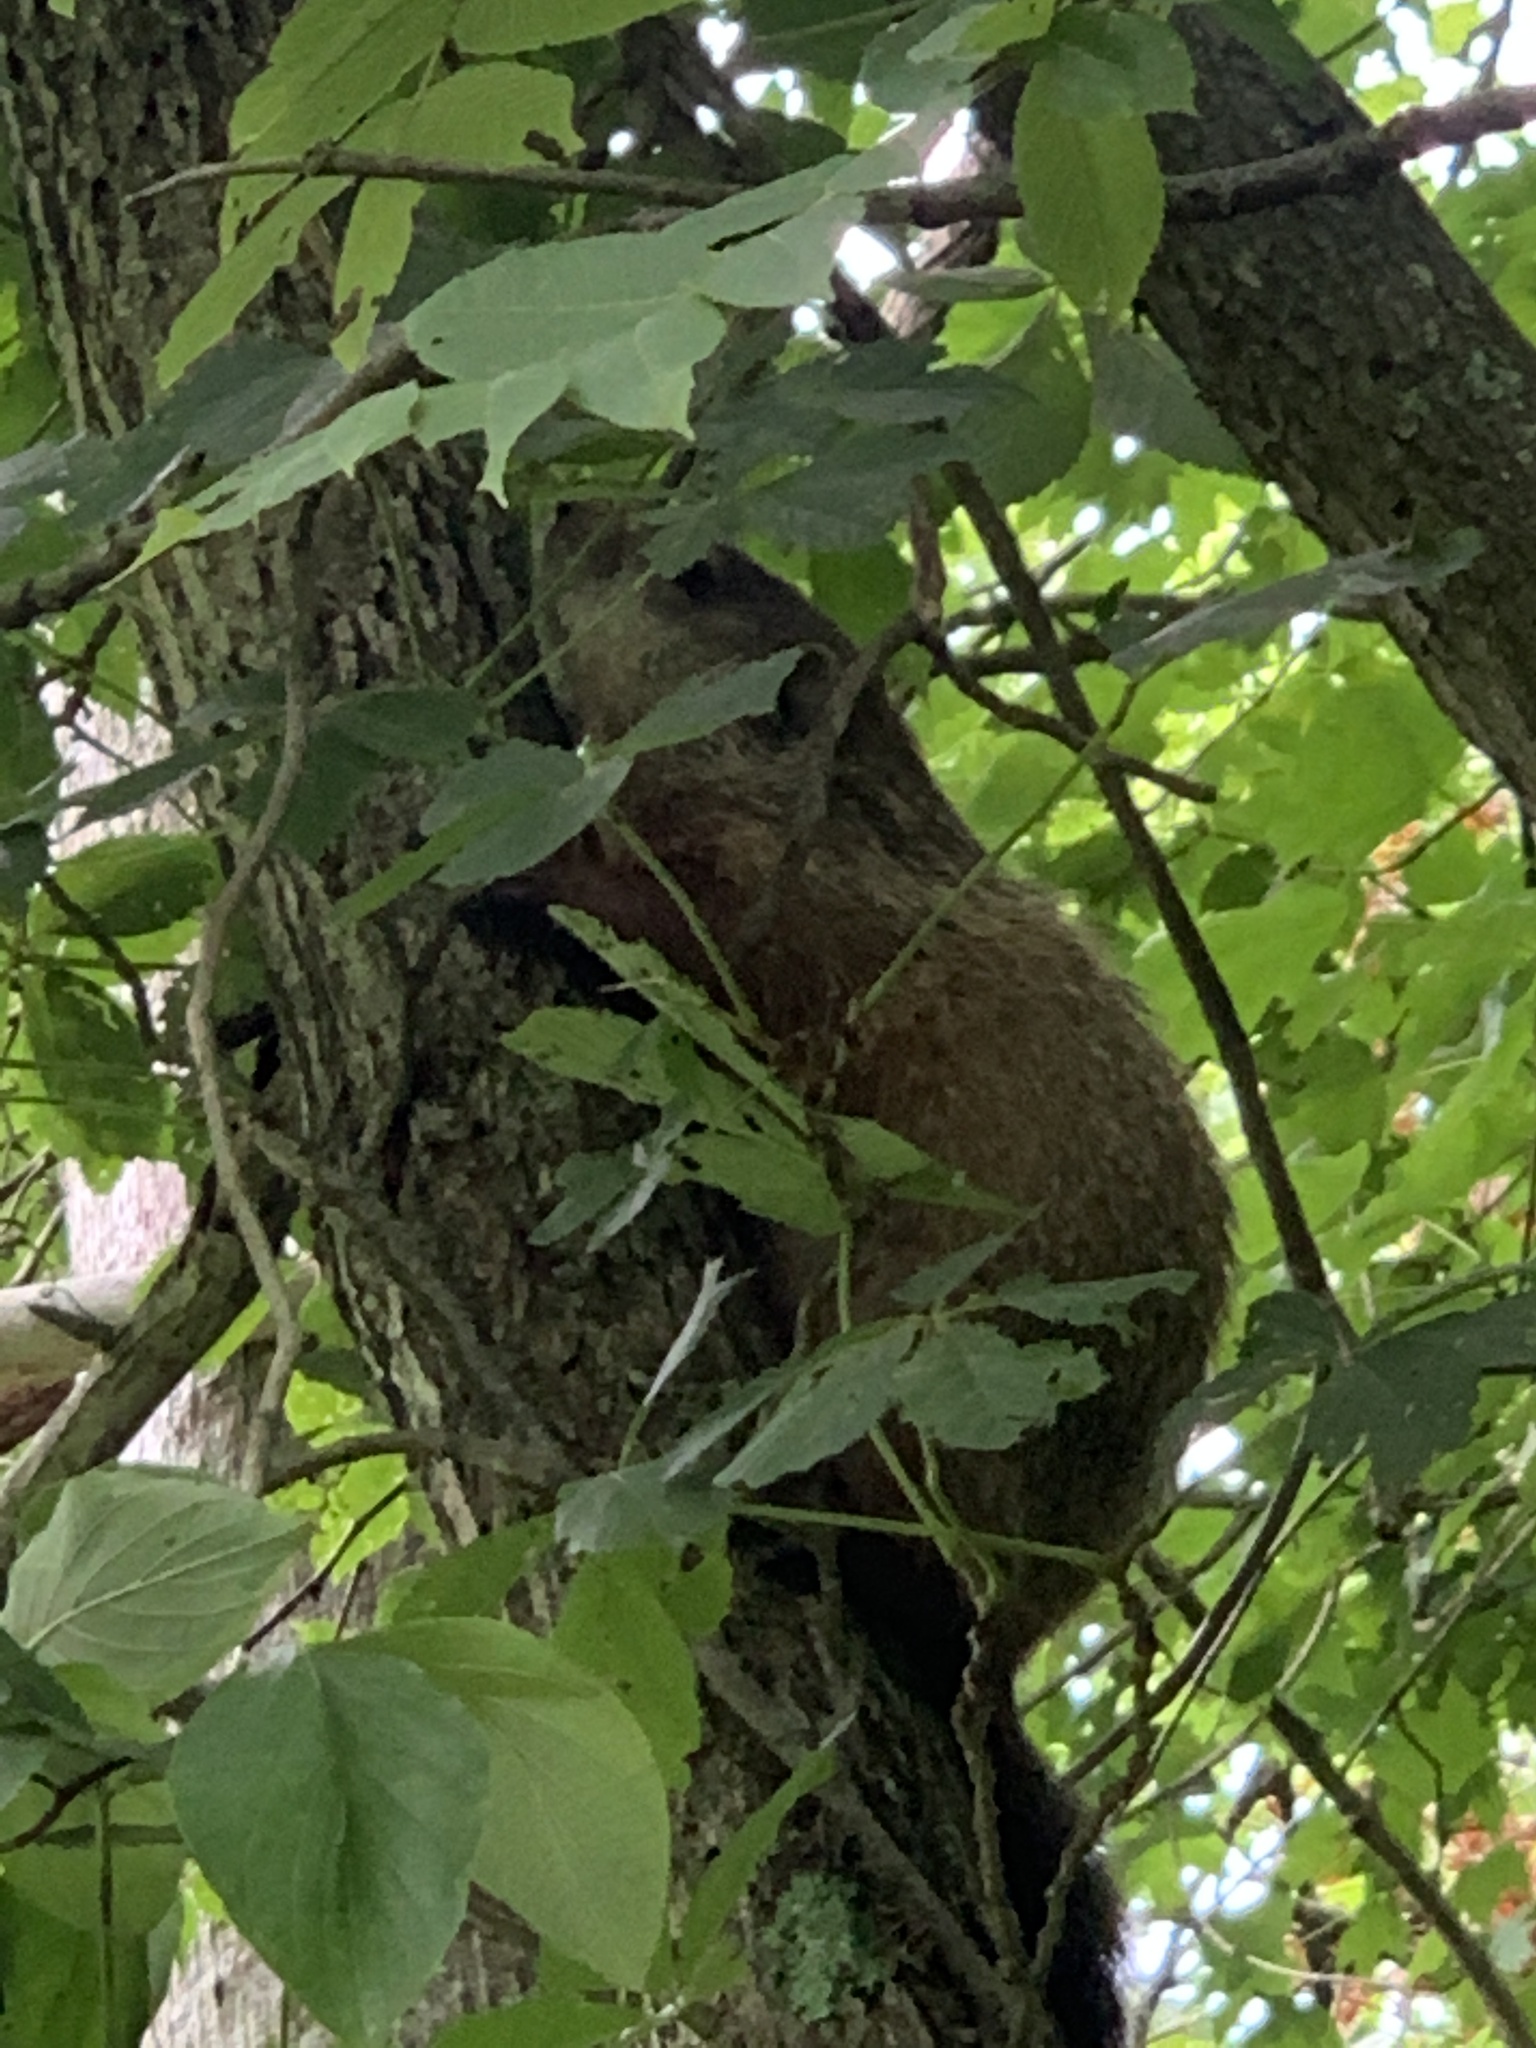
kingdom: Animalia
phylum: Chordata
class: Mammalia
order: Rodentia
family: Sciuridae
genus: Marmota
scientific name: Marmota monax
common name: Groundhog
